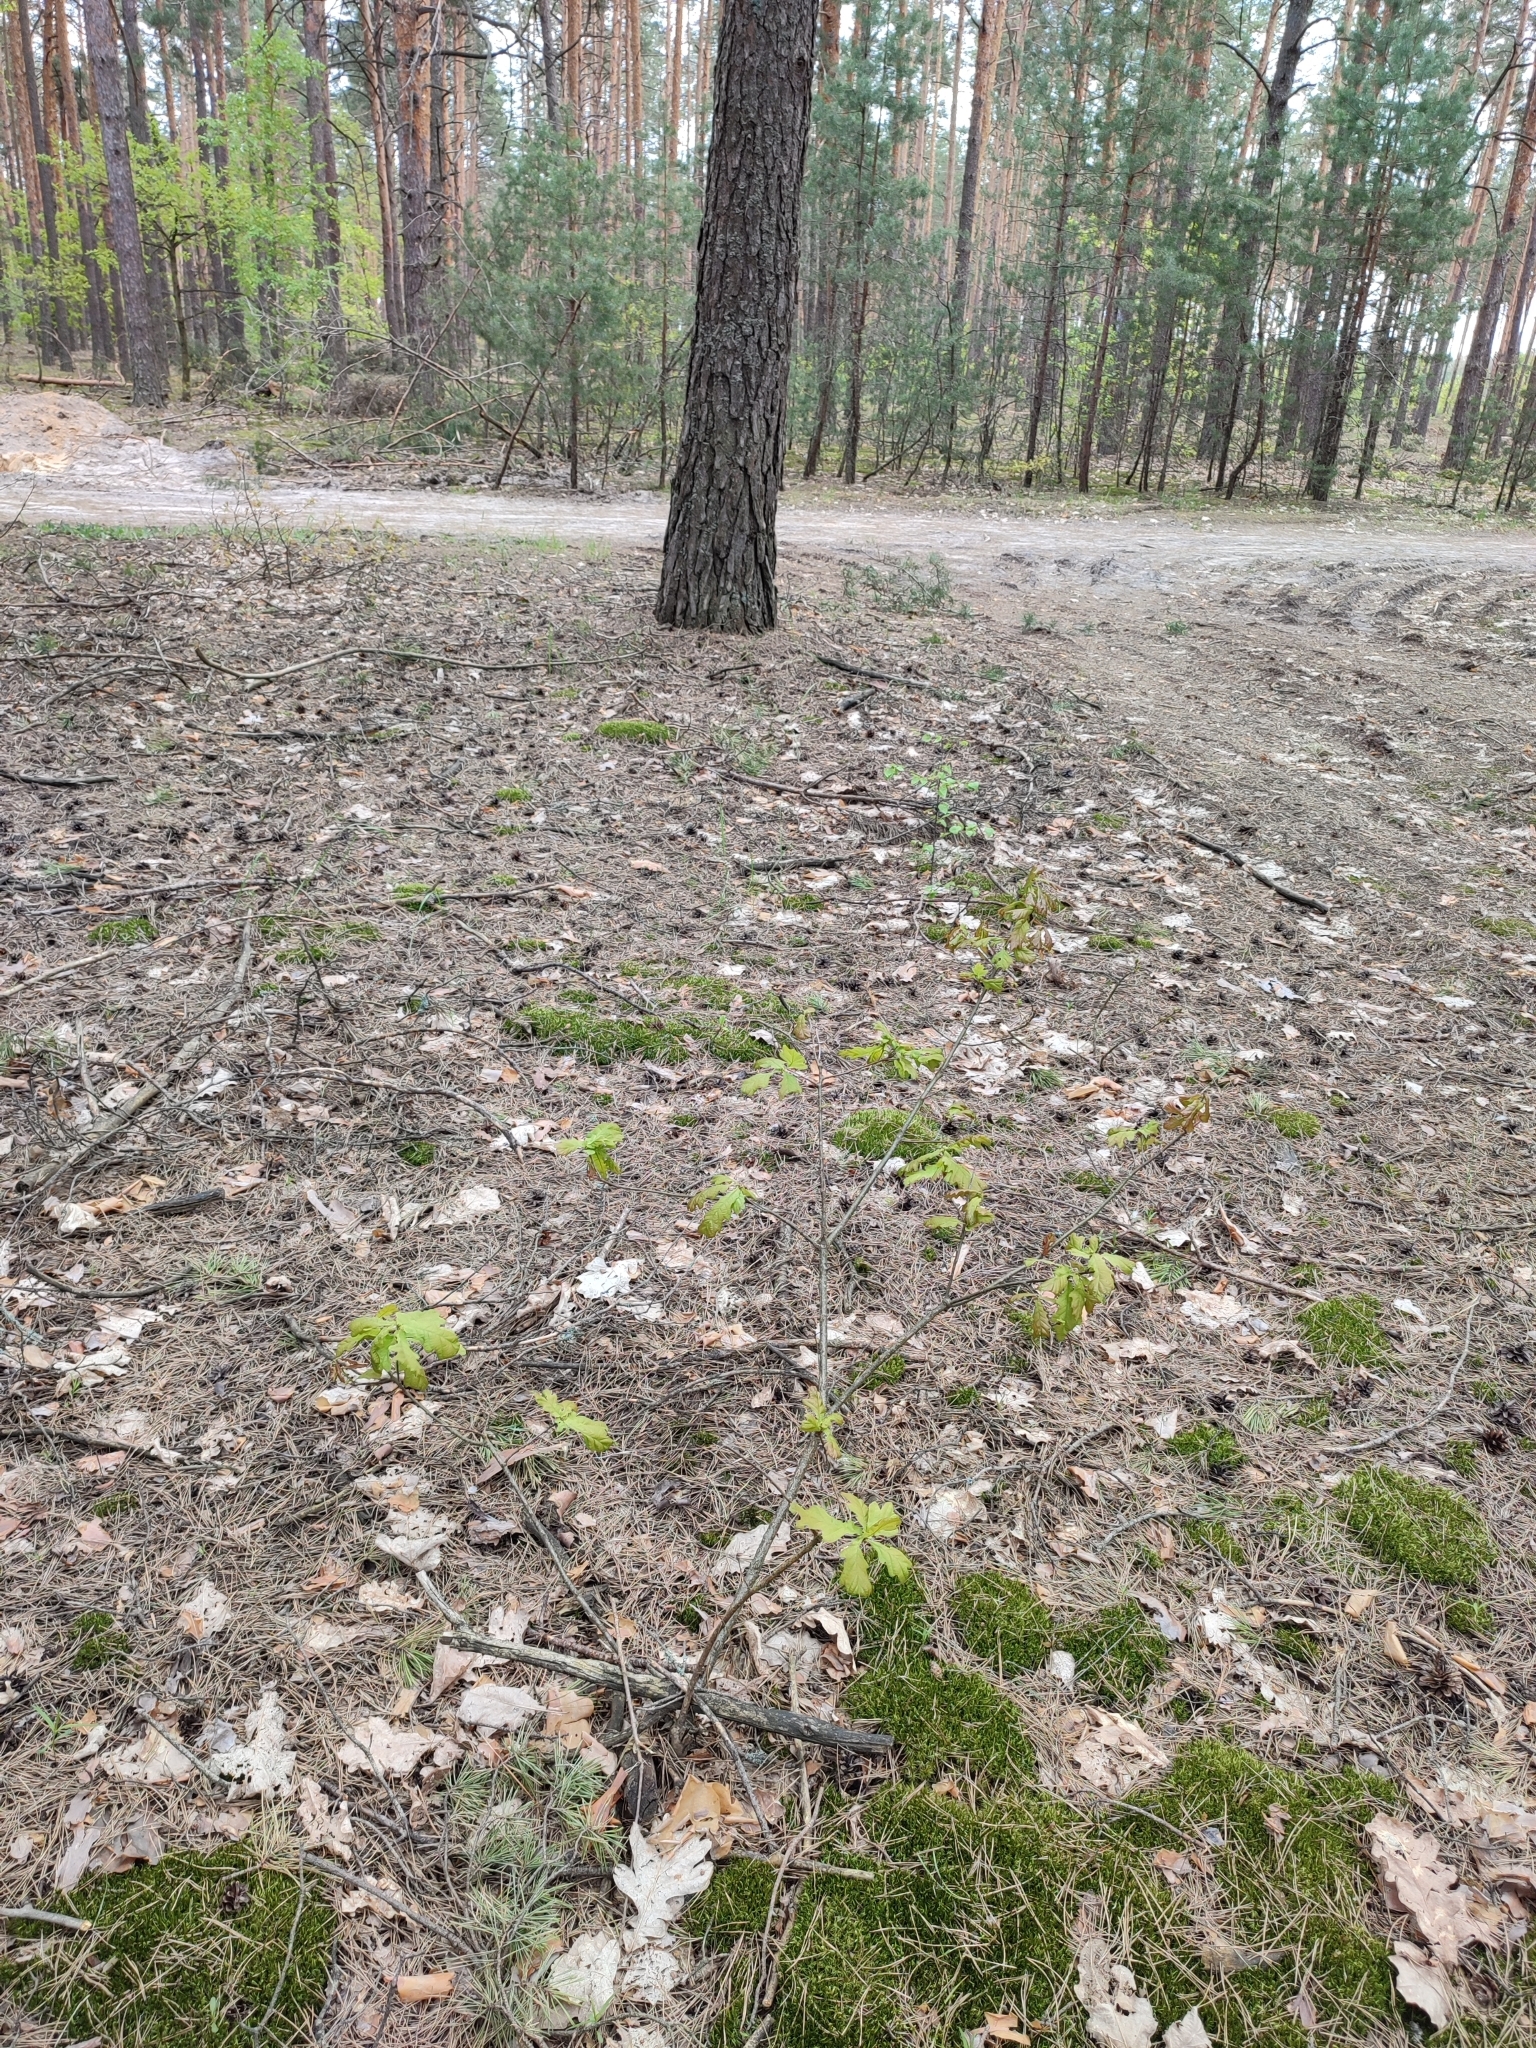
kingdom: Plantae
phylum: Tracheophyta
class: Magnoliopsida
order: Fagales
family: Fagaceae
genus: Quercus
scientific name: Quercus robur
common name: Pedunculate oak
